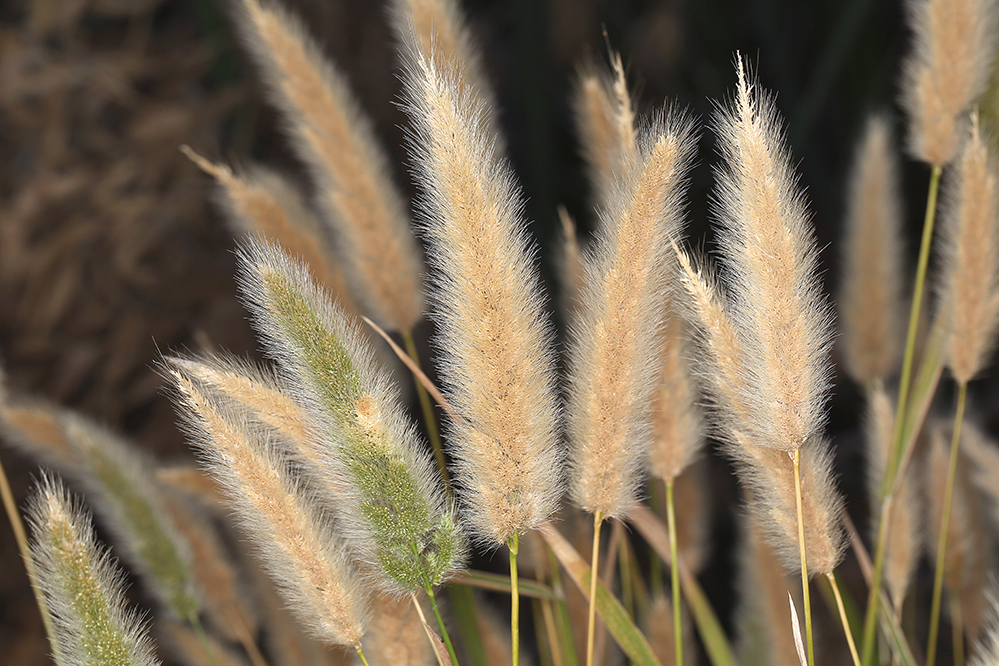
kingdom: Plantae
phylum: Tracheophyta
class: Liliopsida
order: Poales
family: Poaceae
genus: Polypogon
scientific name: Polypogon monspeliensis
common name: Annual rabbitsfoot grass
